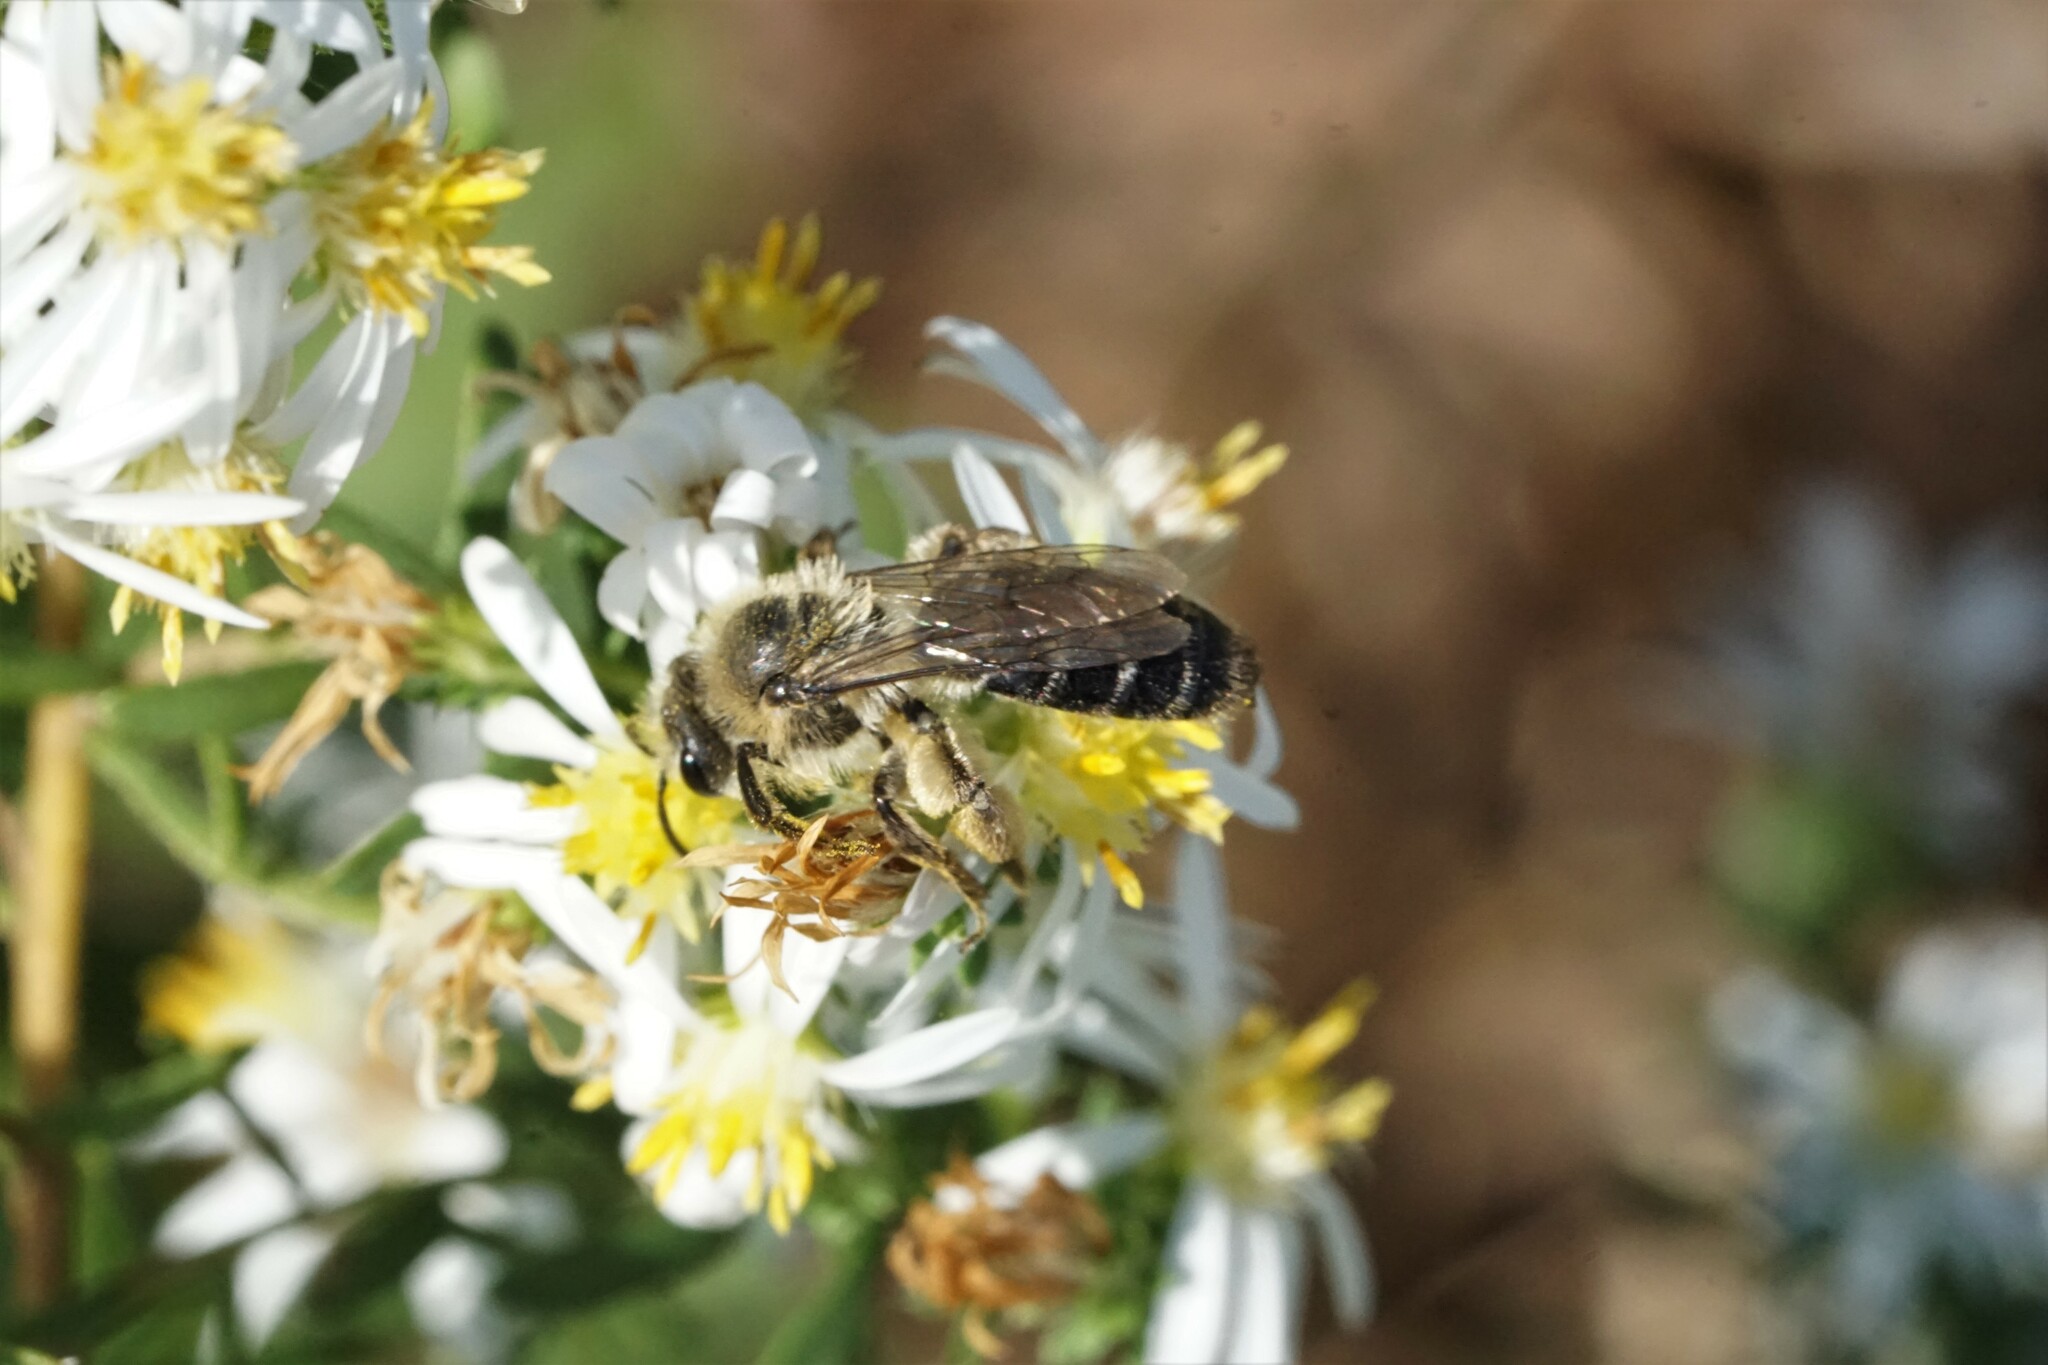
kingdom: Animalia
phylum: Arthropoda
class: Insecta
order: Hymenoptera
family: Andrenidae
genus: Andrena
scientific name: Andrena asteris
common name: Aster mining bee
